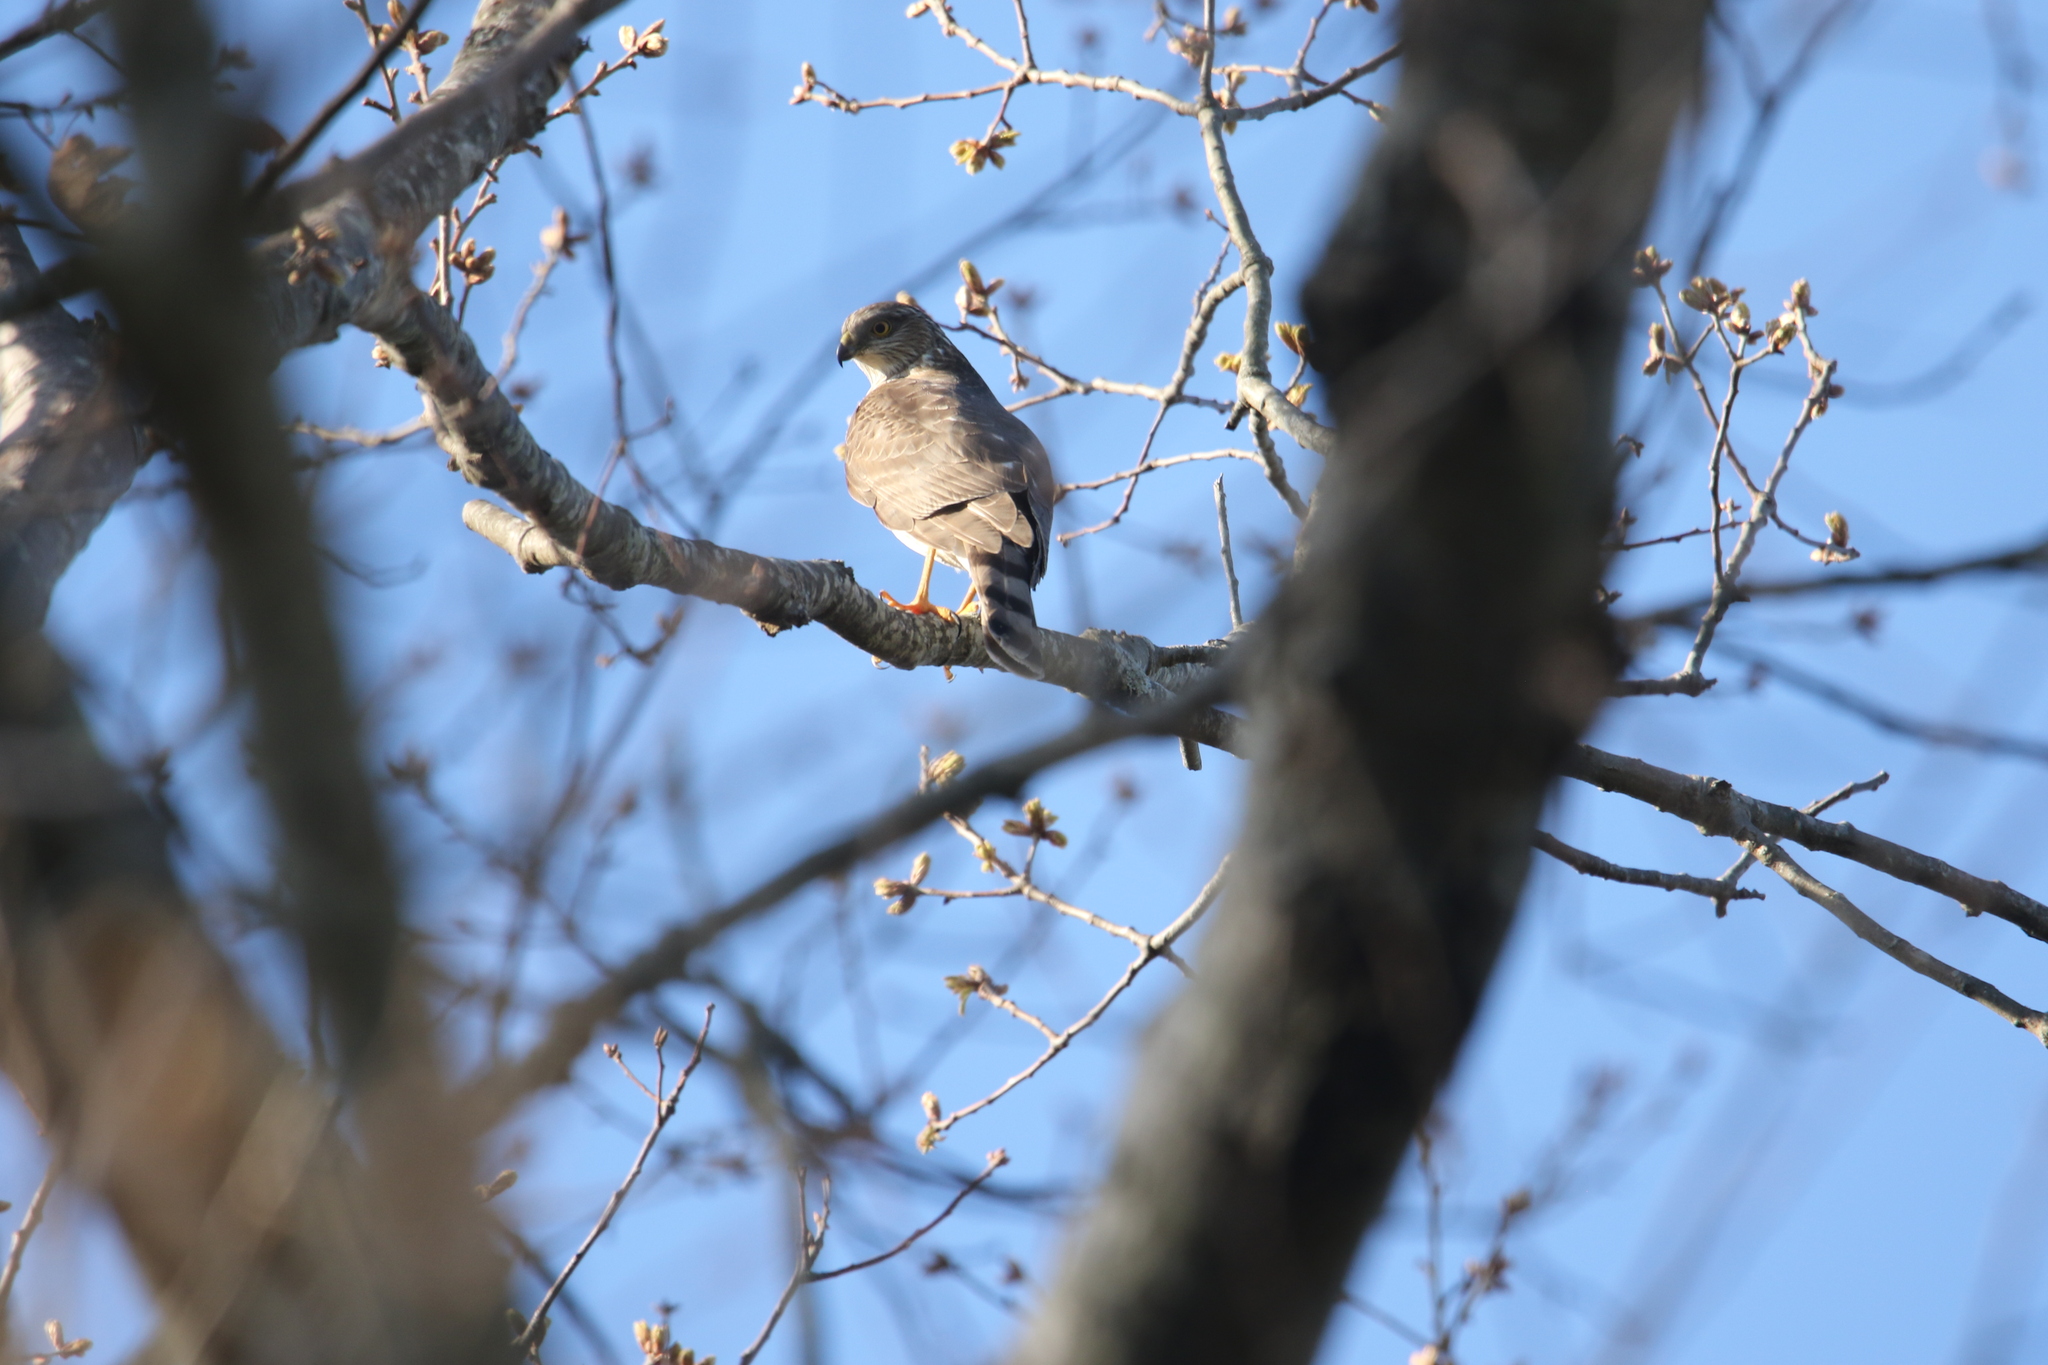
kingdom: Animalia
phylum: Chordata
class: Aves
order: Accipitriformes
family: Accipitridae
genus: Accipiter
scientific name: Accipiter striatus
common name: Sharp-shinned hawk
